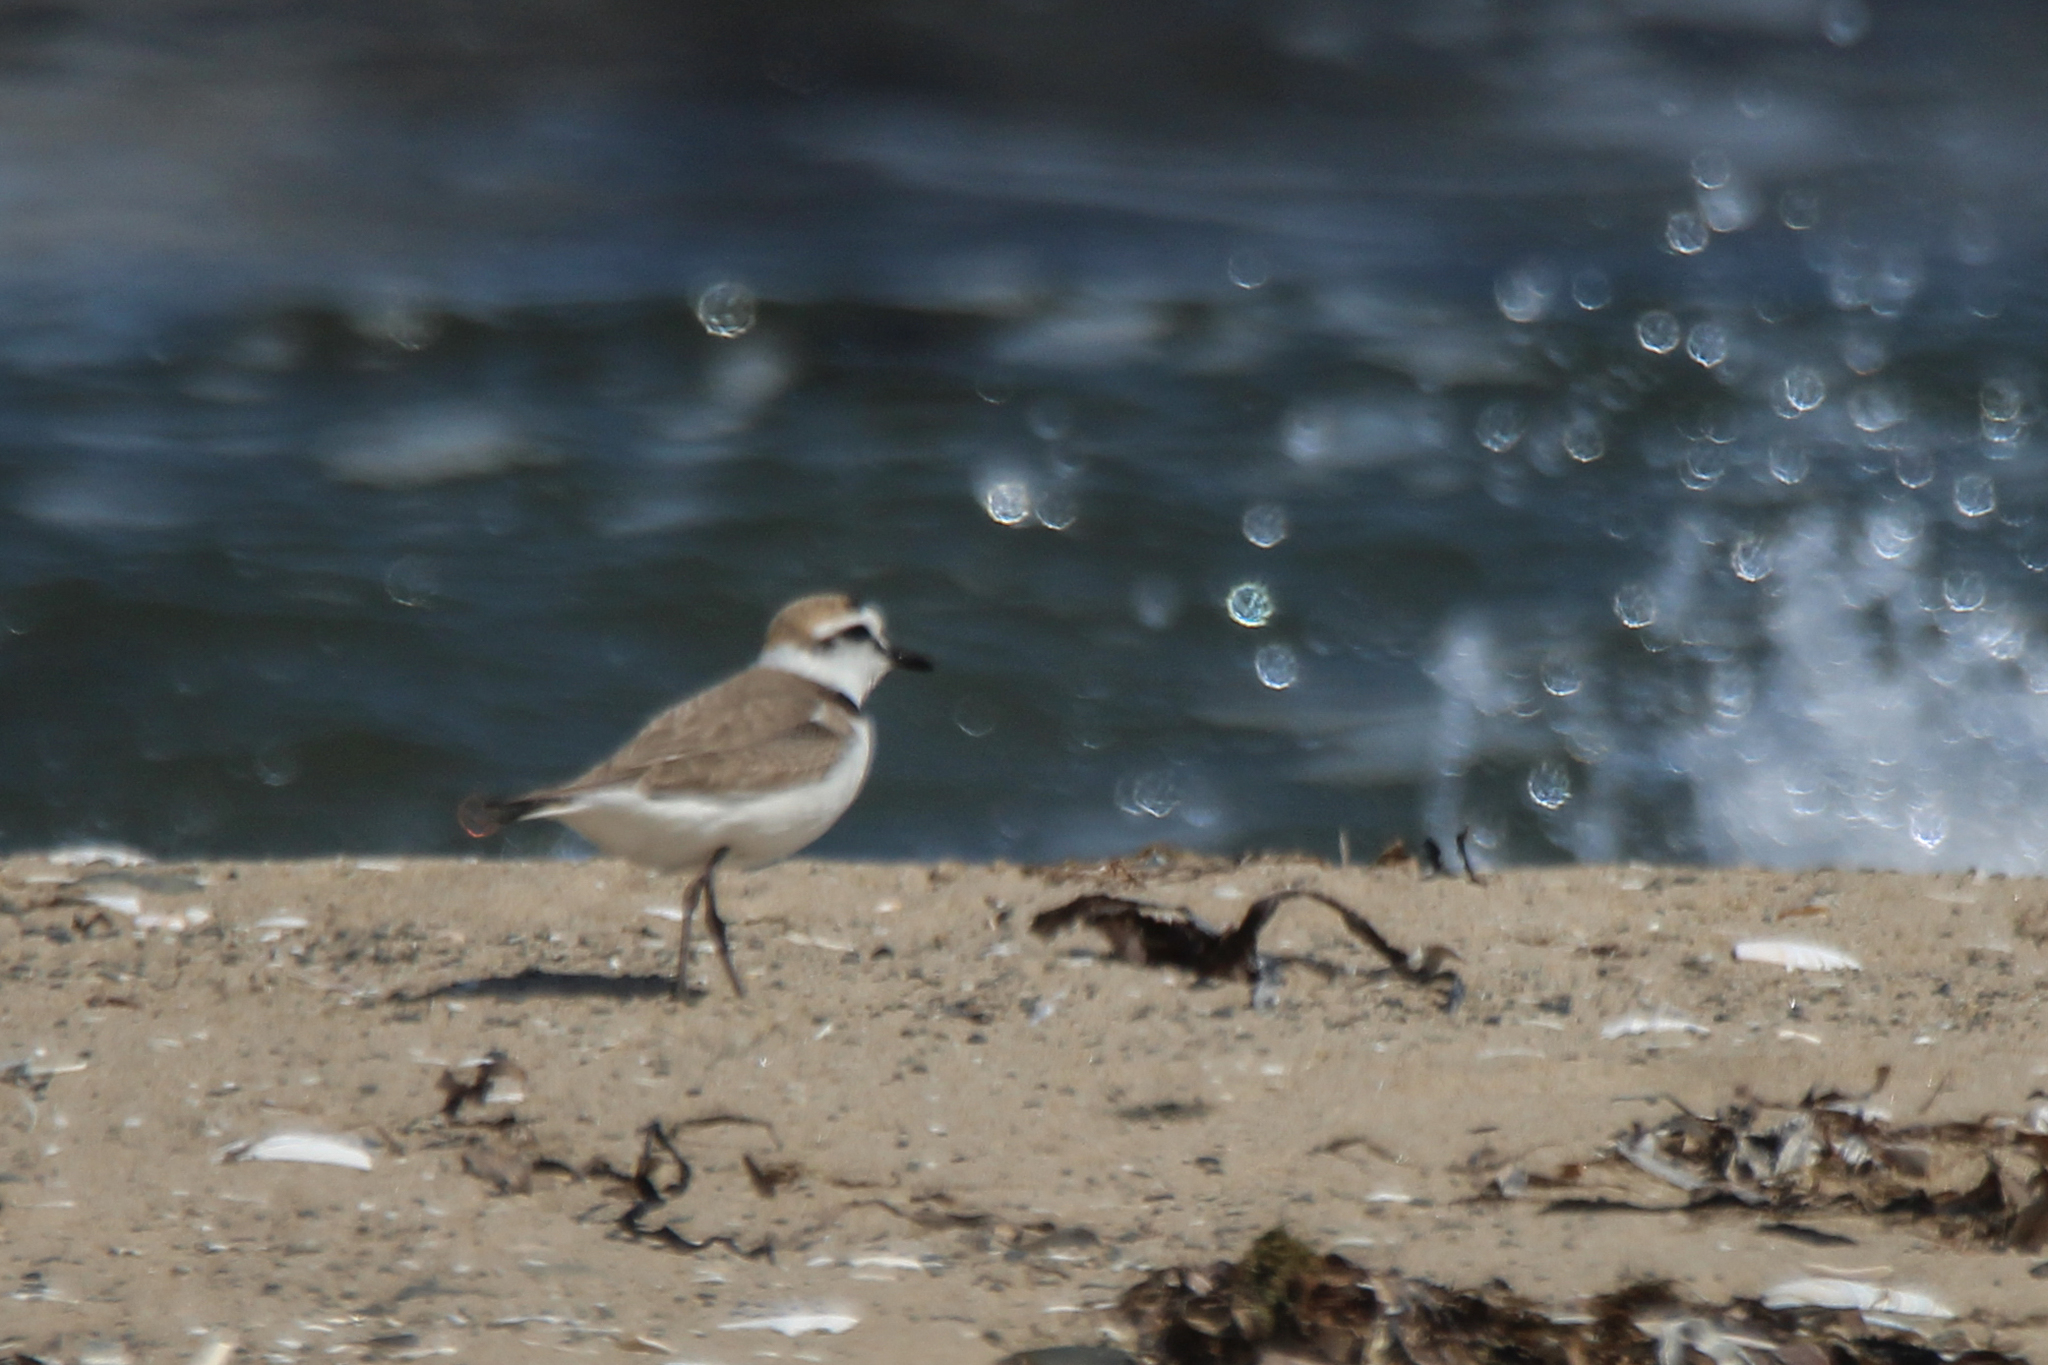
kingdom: Animalia
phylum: Chordata
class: Aves
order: Charadriiformes
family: Charadriidae
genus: Charadrius
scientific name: Charadrius alexandrinus
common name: Kentish plover
